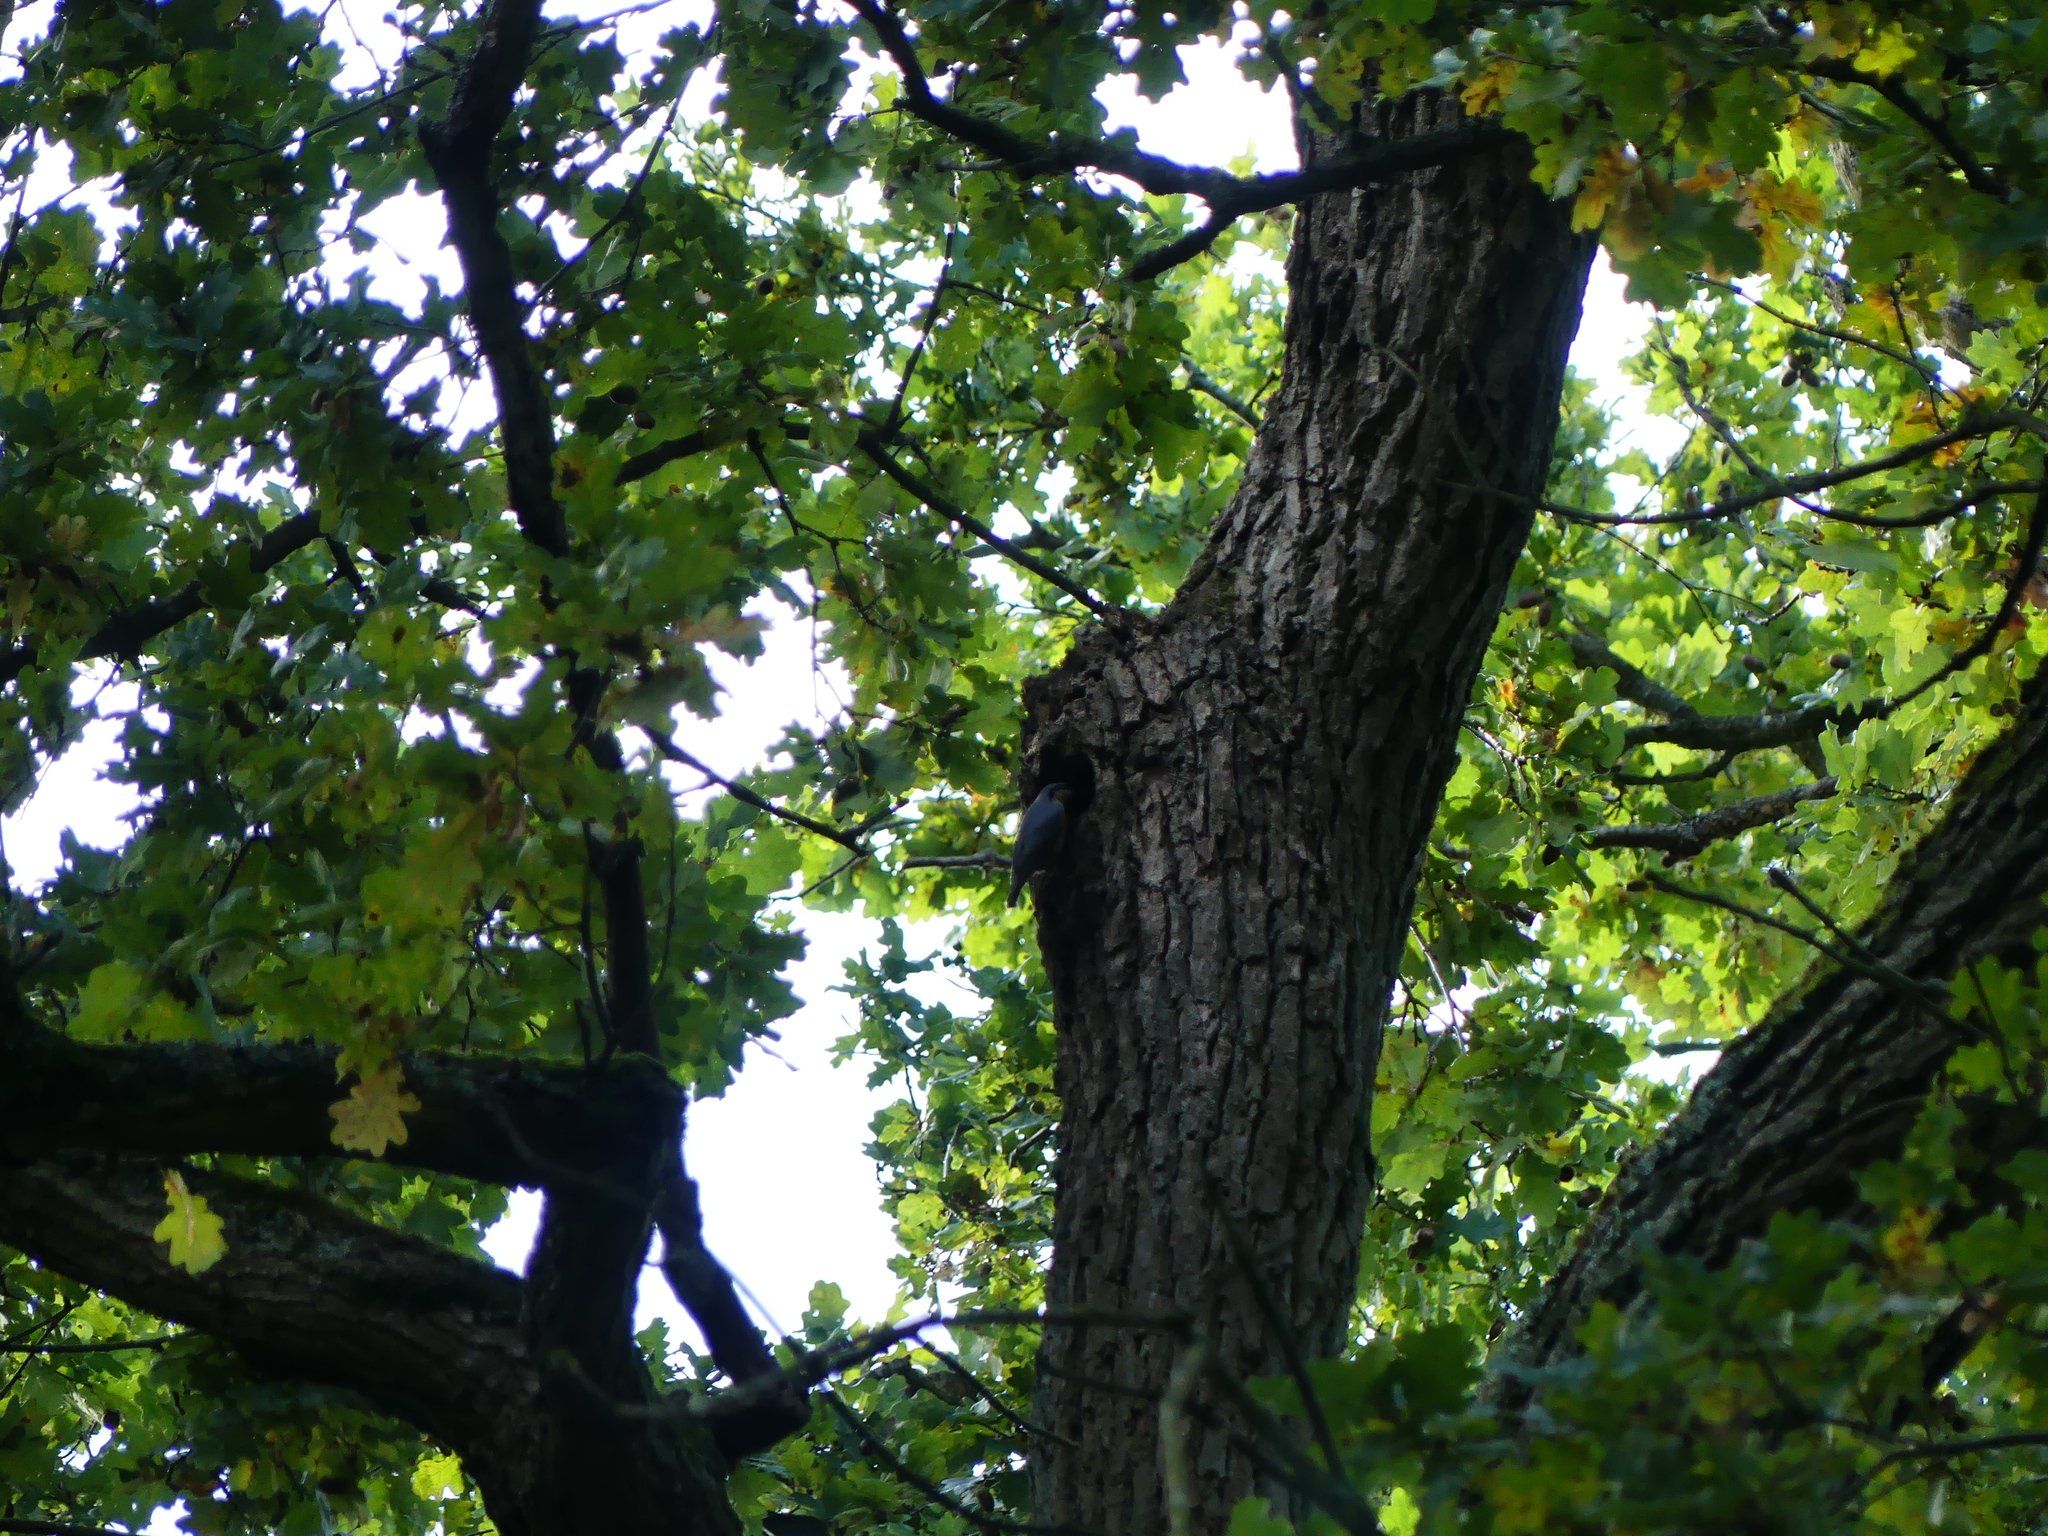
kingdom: Animalia
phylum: Chordata
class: Aves
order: Passeriformes
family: Sittidae
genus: Sitta
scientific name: Sitta europaea
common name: Eurasian nuthatch
